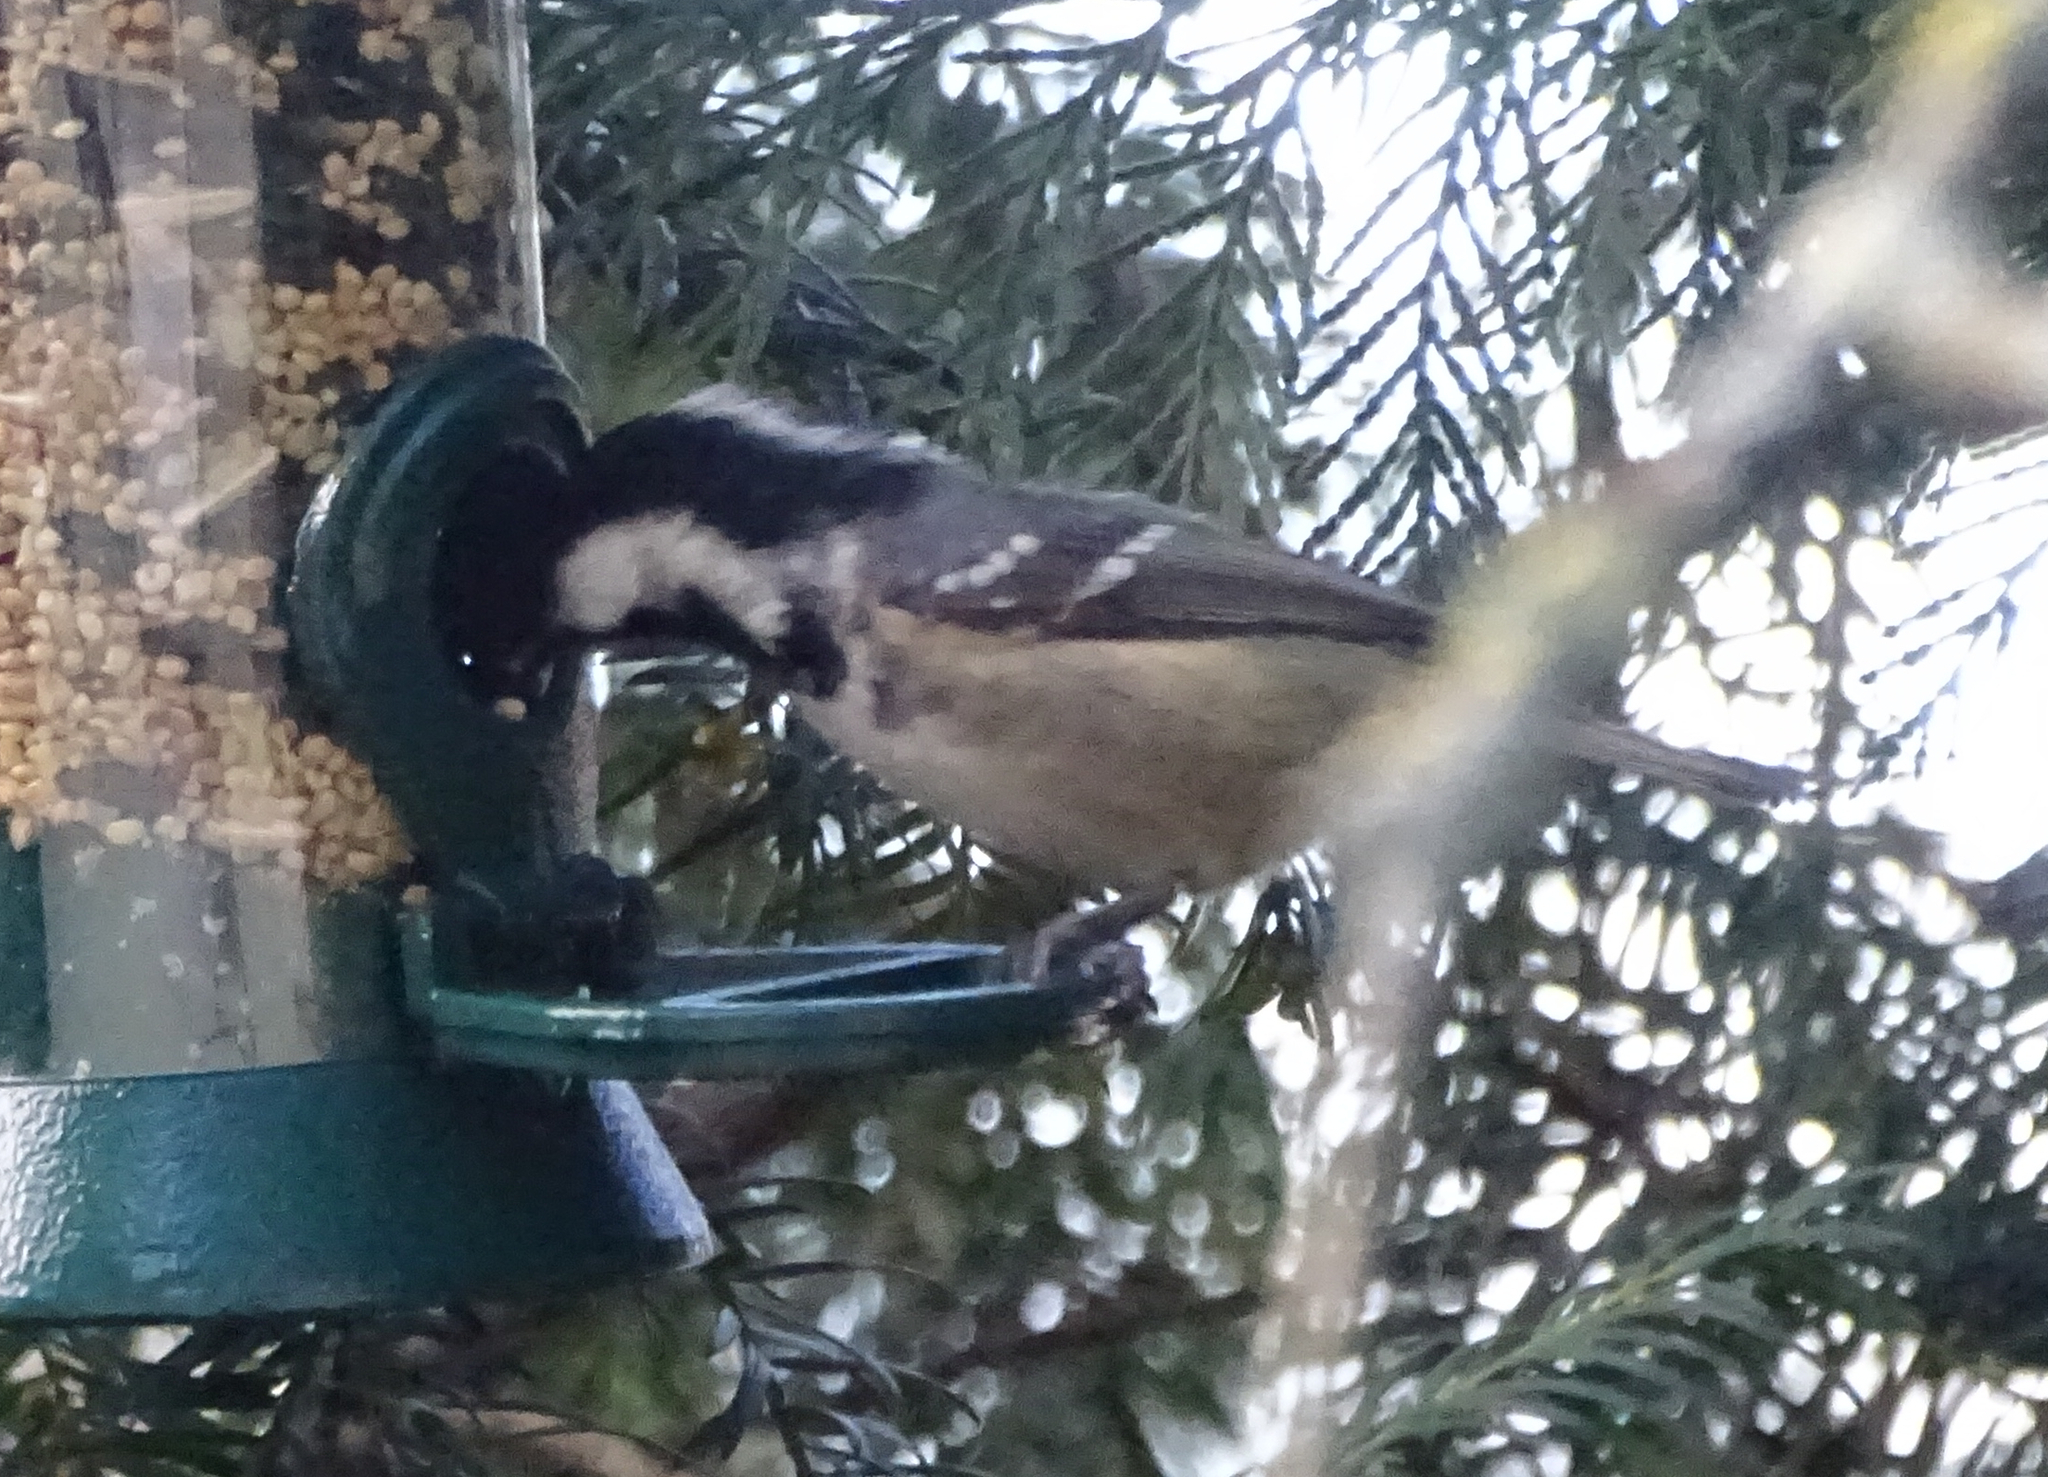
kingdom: Animalia
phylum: Chordata
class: Aves
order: Passeriformes
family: Paridae
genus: Periparus
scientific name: Periparus ater
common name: Coal tit
